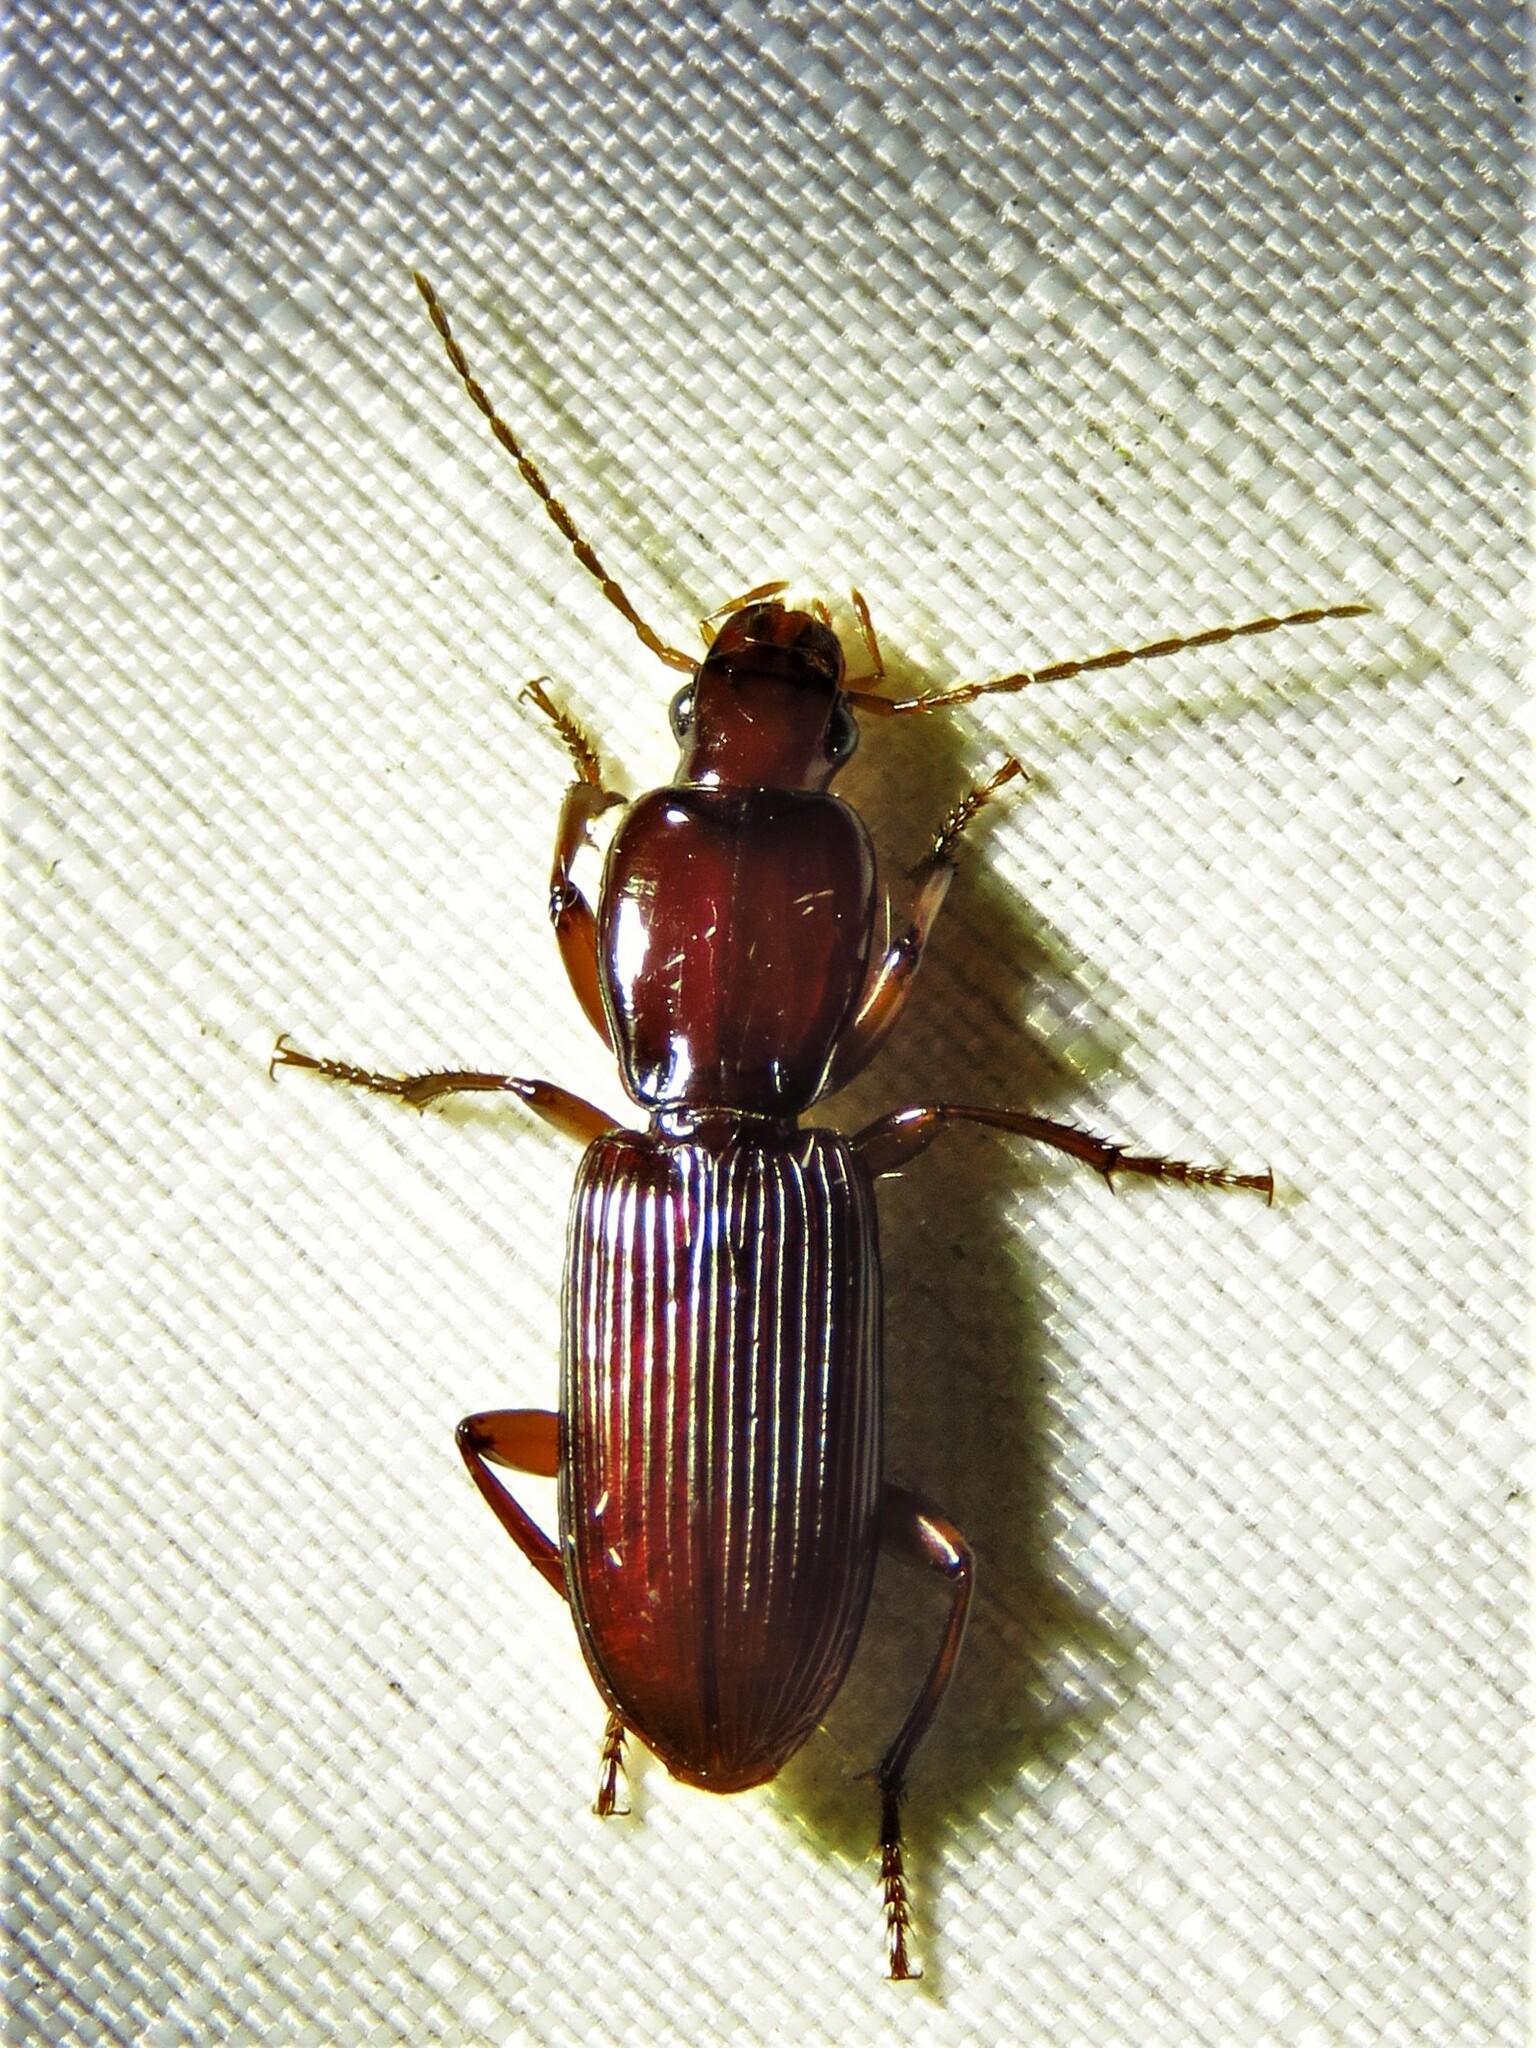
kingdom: Animalia
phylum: Arthropoda
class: Insecta
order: Coleoptera
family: Carabidae
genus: Stenomorphus
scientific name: Stenomorphus californicus
